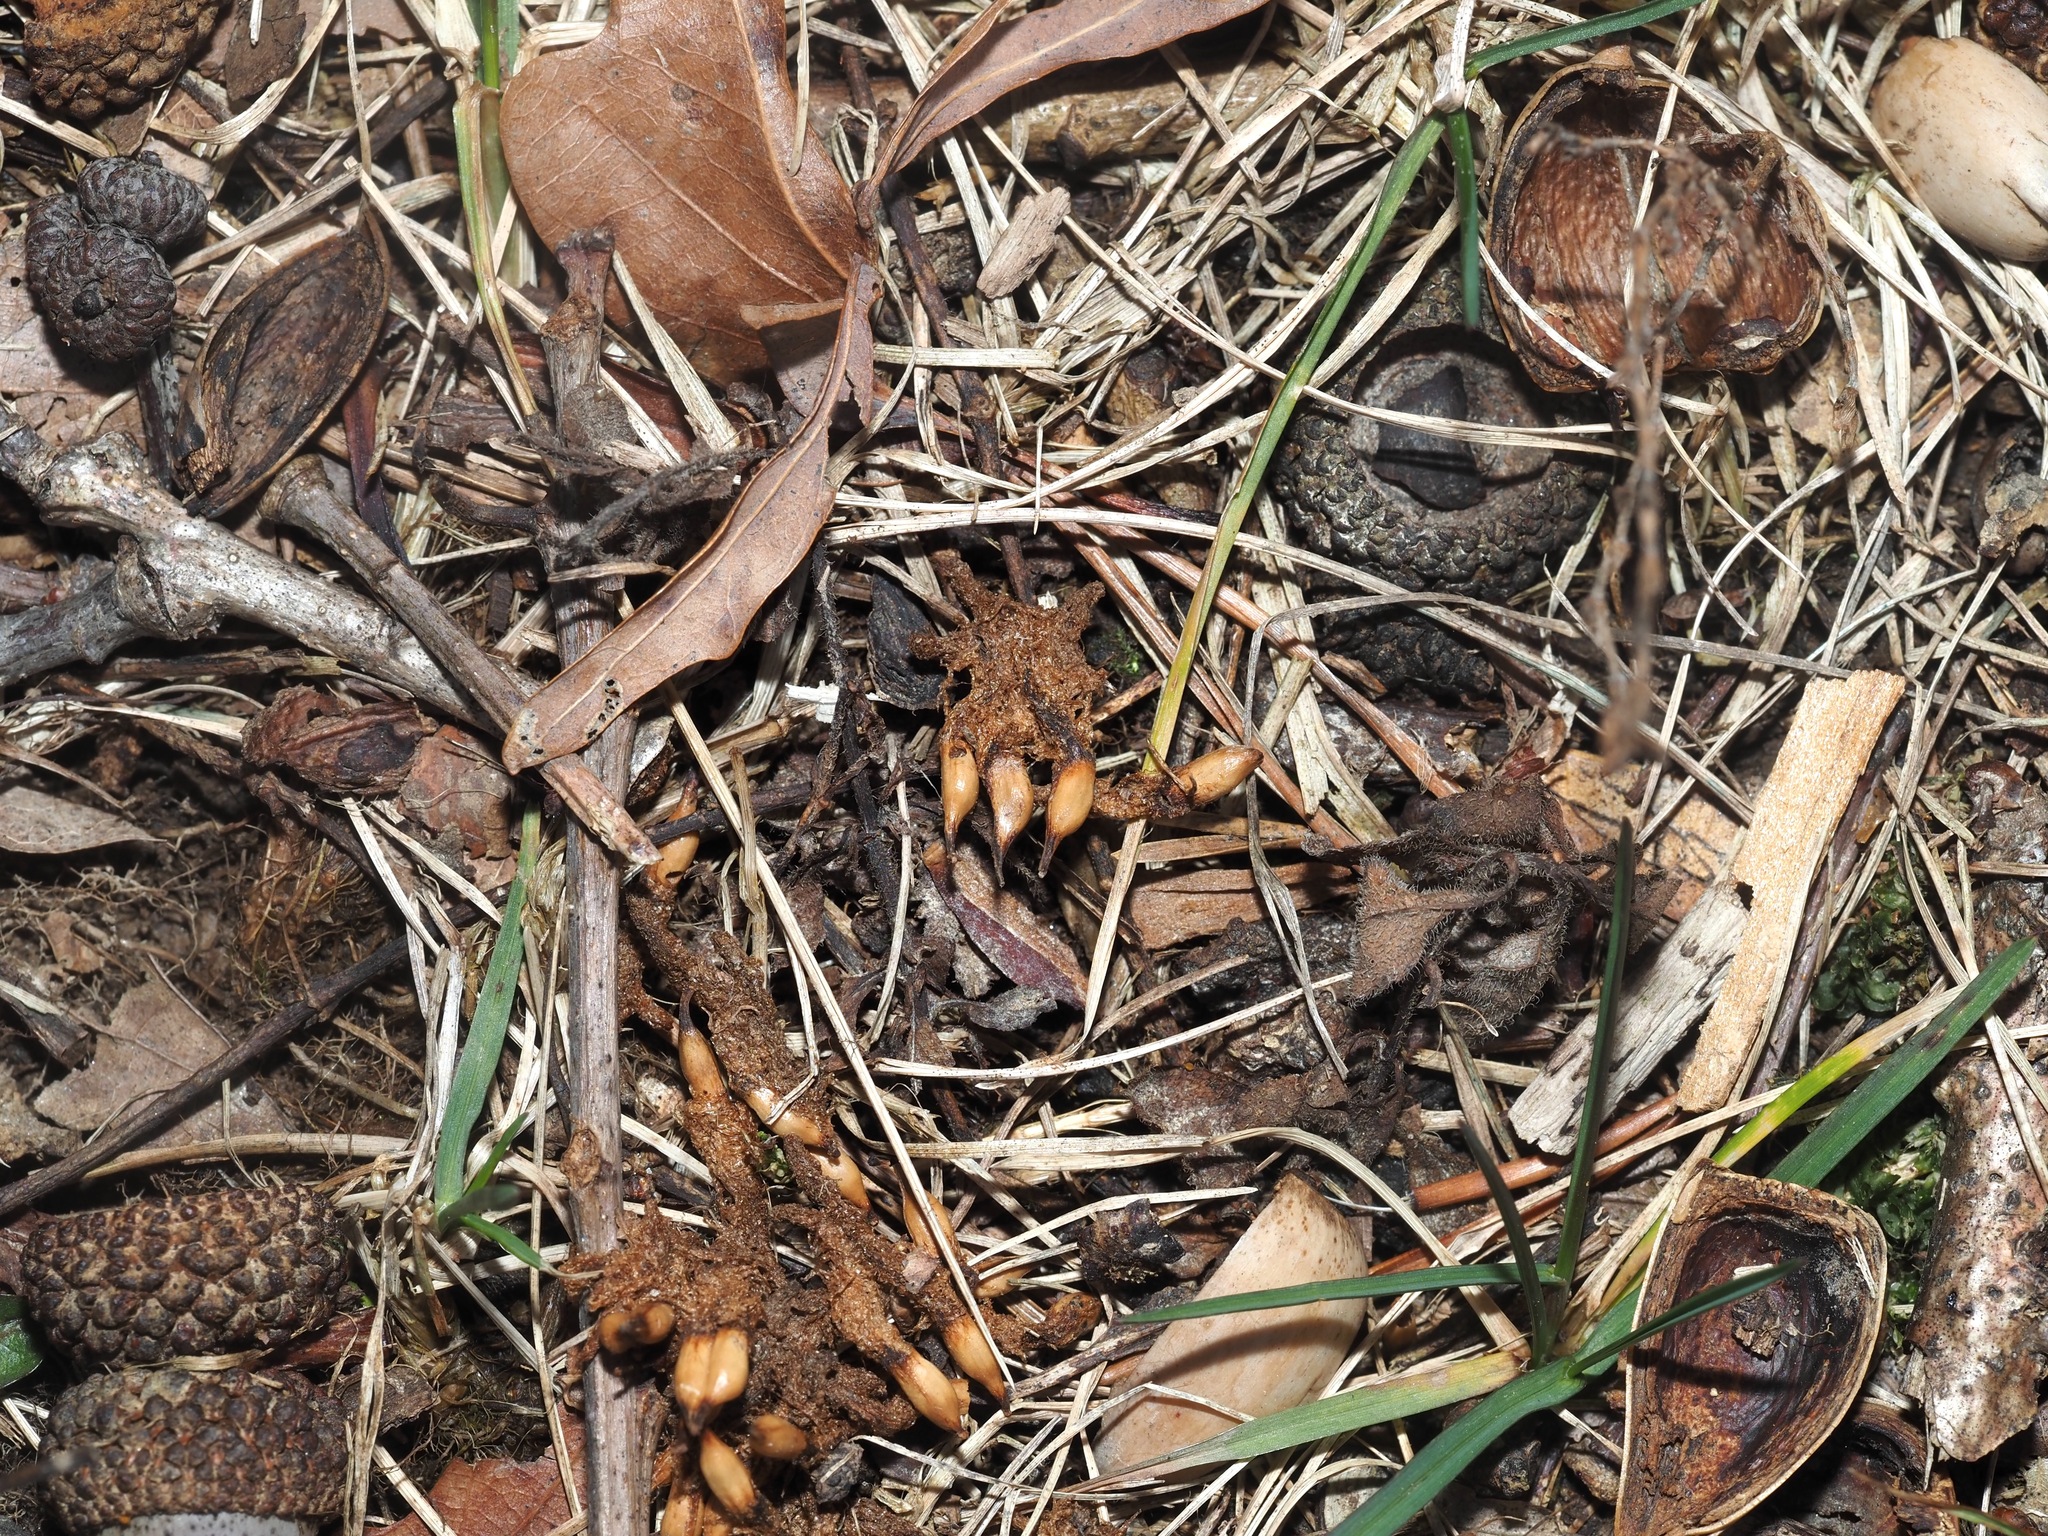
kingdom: Animalia
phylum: Arthropoda
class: Insecta
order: Hymenoptera
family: Cynipidae
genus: Callirhytis
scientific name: Callirhytis
